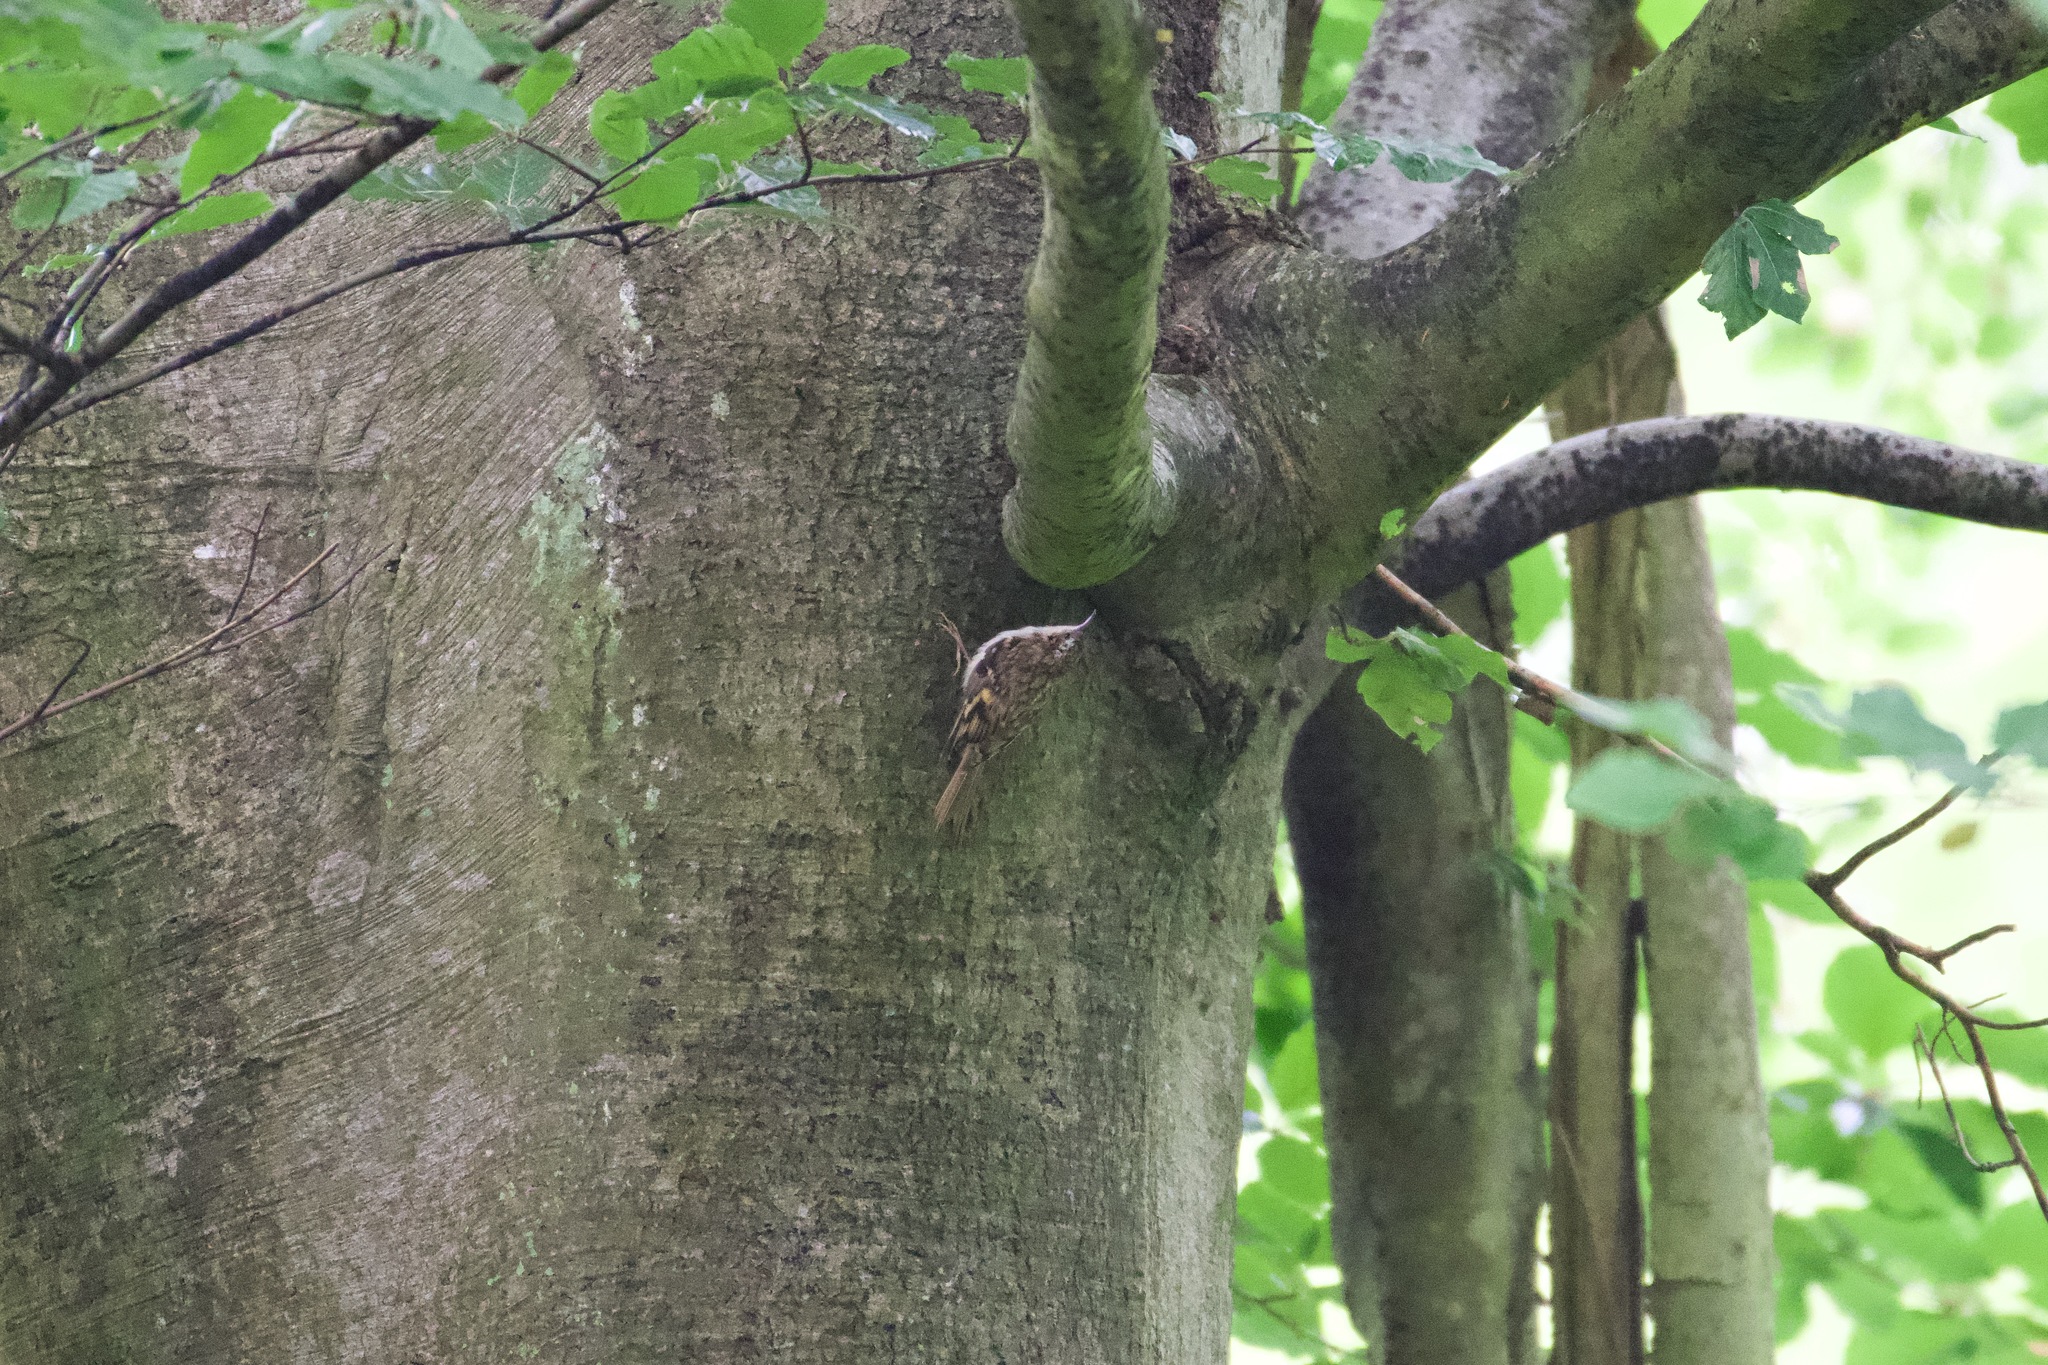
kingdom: Animalia
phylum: Chordata
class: Aves
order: Passeriformes
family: Certhiidae
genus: Certhia
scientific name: Certhia familiaris
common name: Eurasian treecreeper
